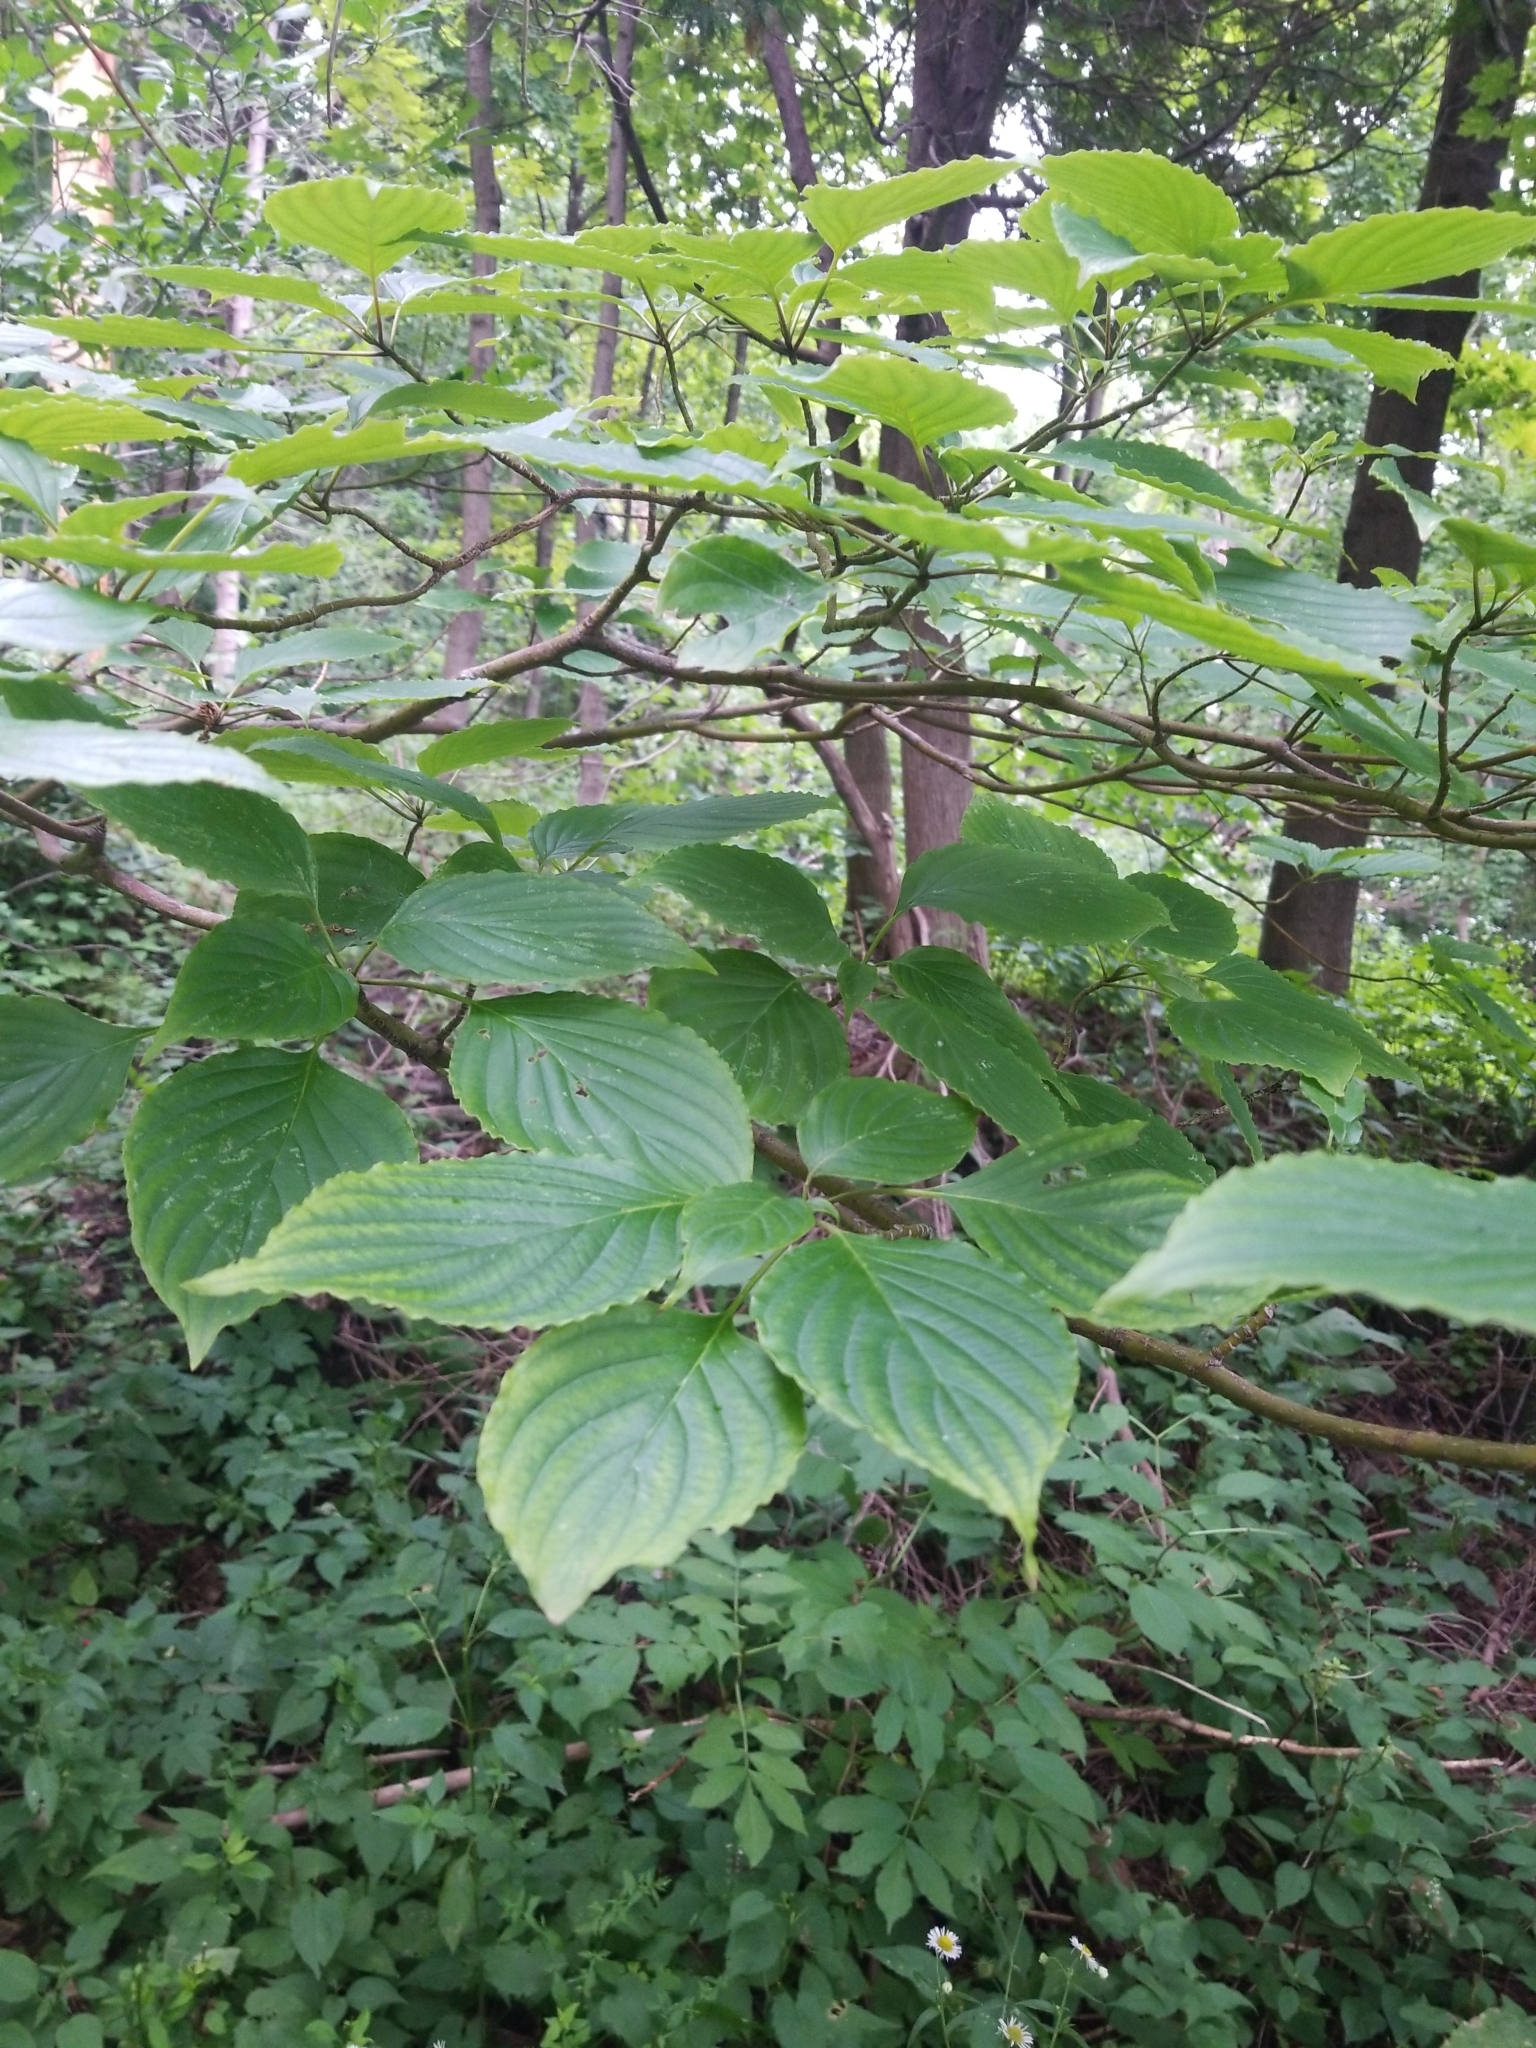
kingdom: Plantae
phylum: Tracheophyta
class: Magnoliopsida
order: Cornales
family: Cornaceae
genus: Cornus
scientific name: Cornus alternifolia
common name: Pagoda dogwood
